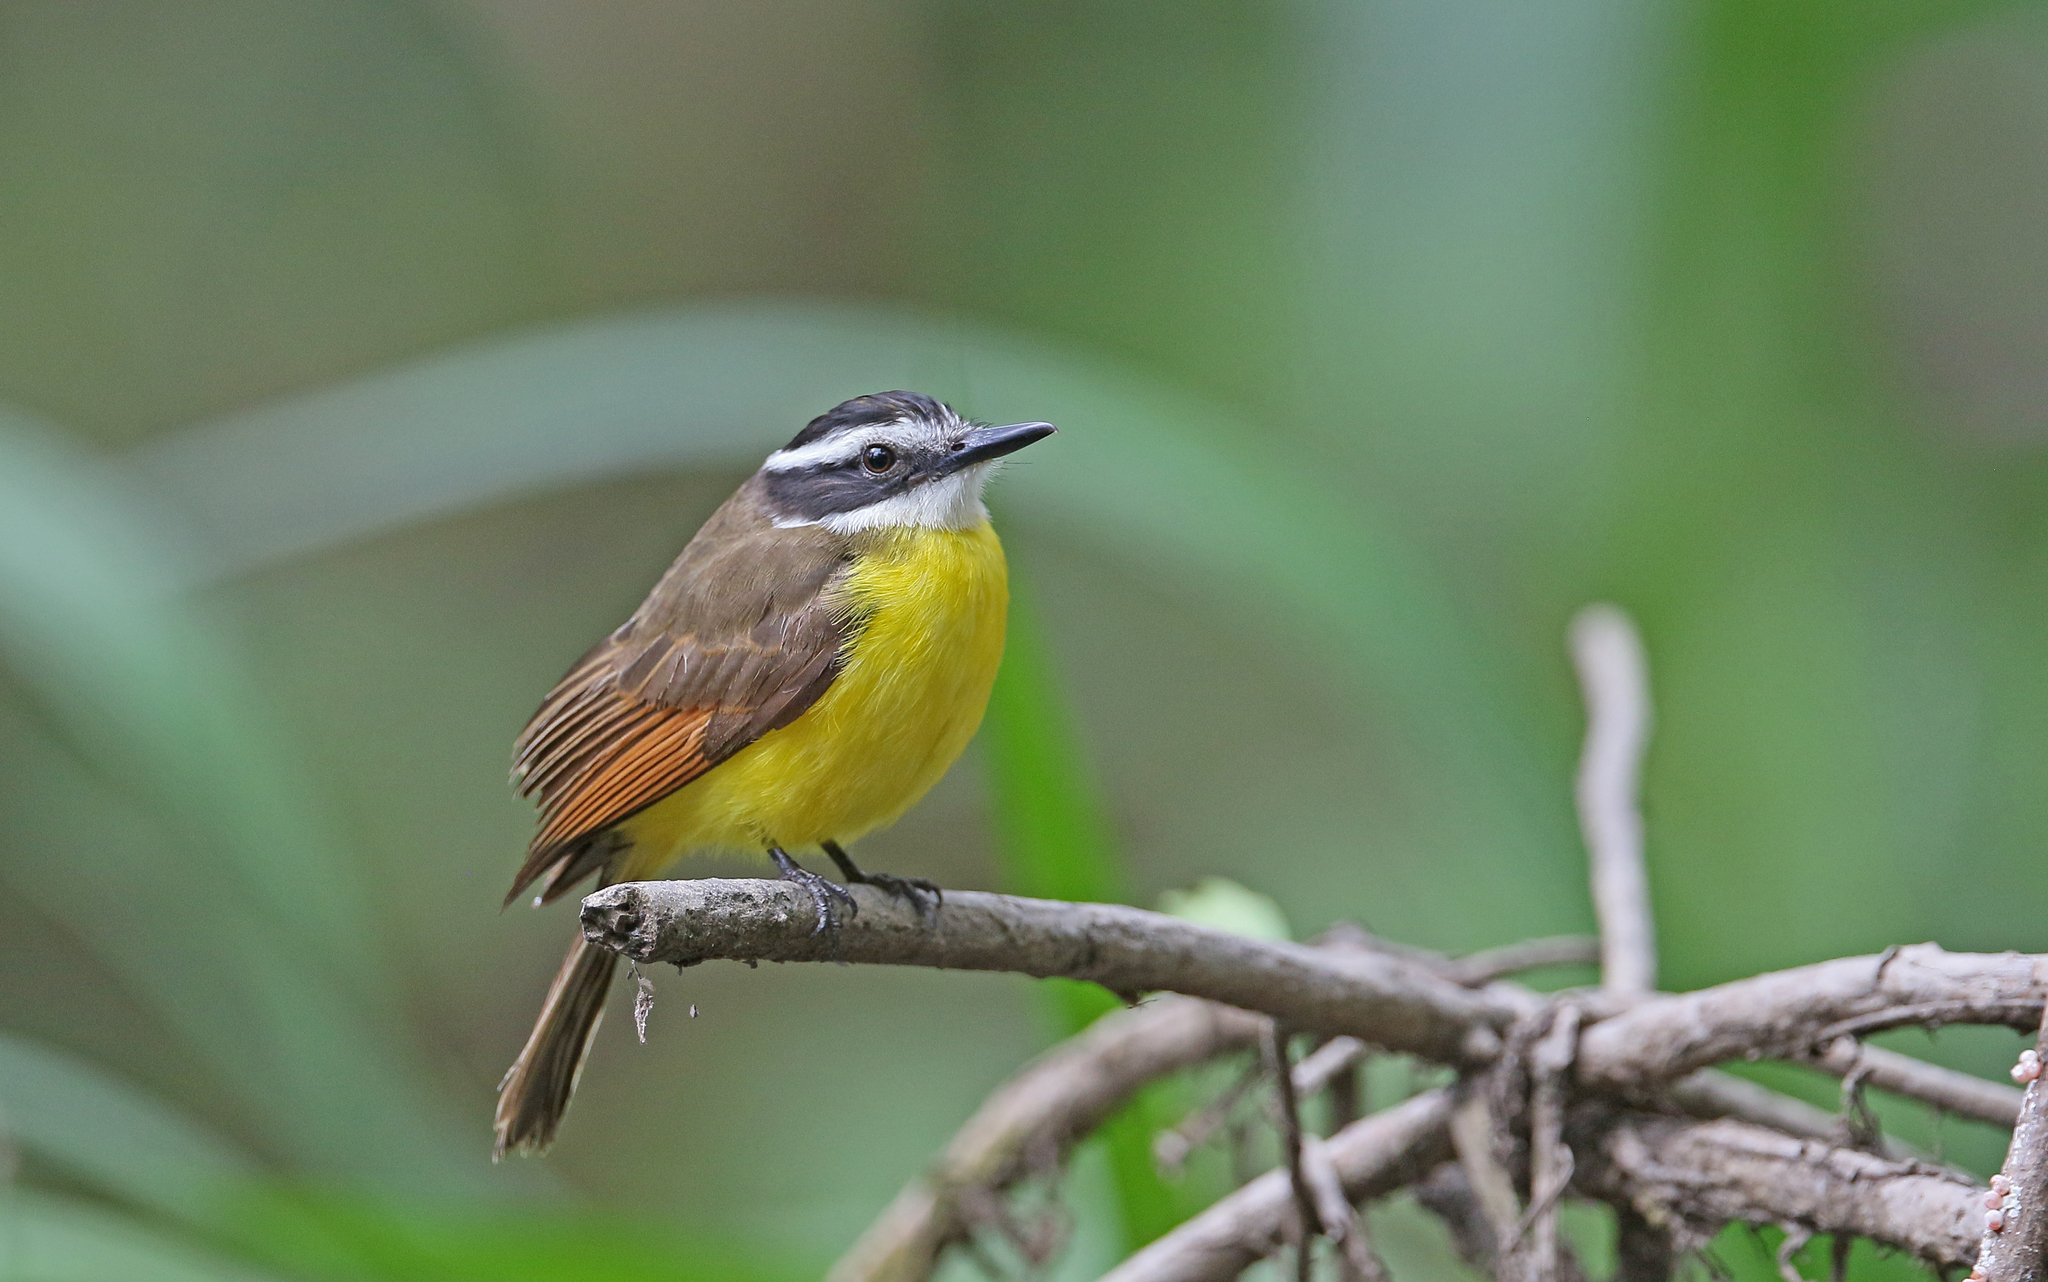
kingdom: Animalia
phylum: Chordata
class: Aves
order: Passeriformes
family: Tyrannidae
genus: Pitangus
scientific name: Pitangus lictor
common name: Lesser kiskadee
